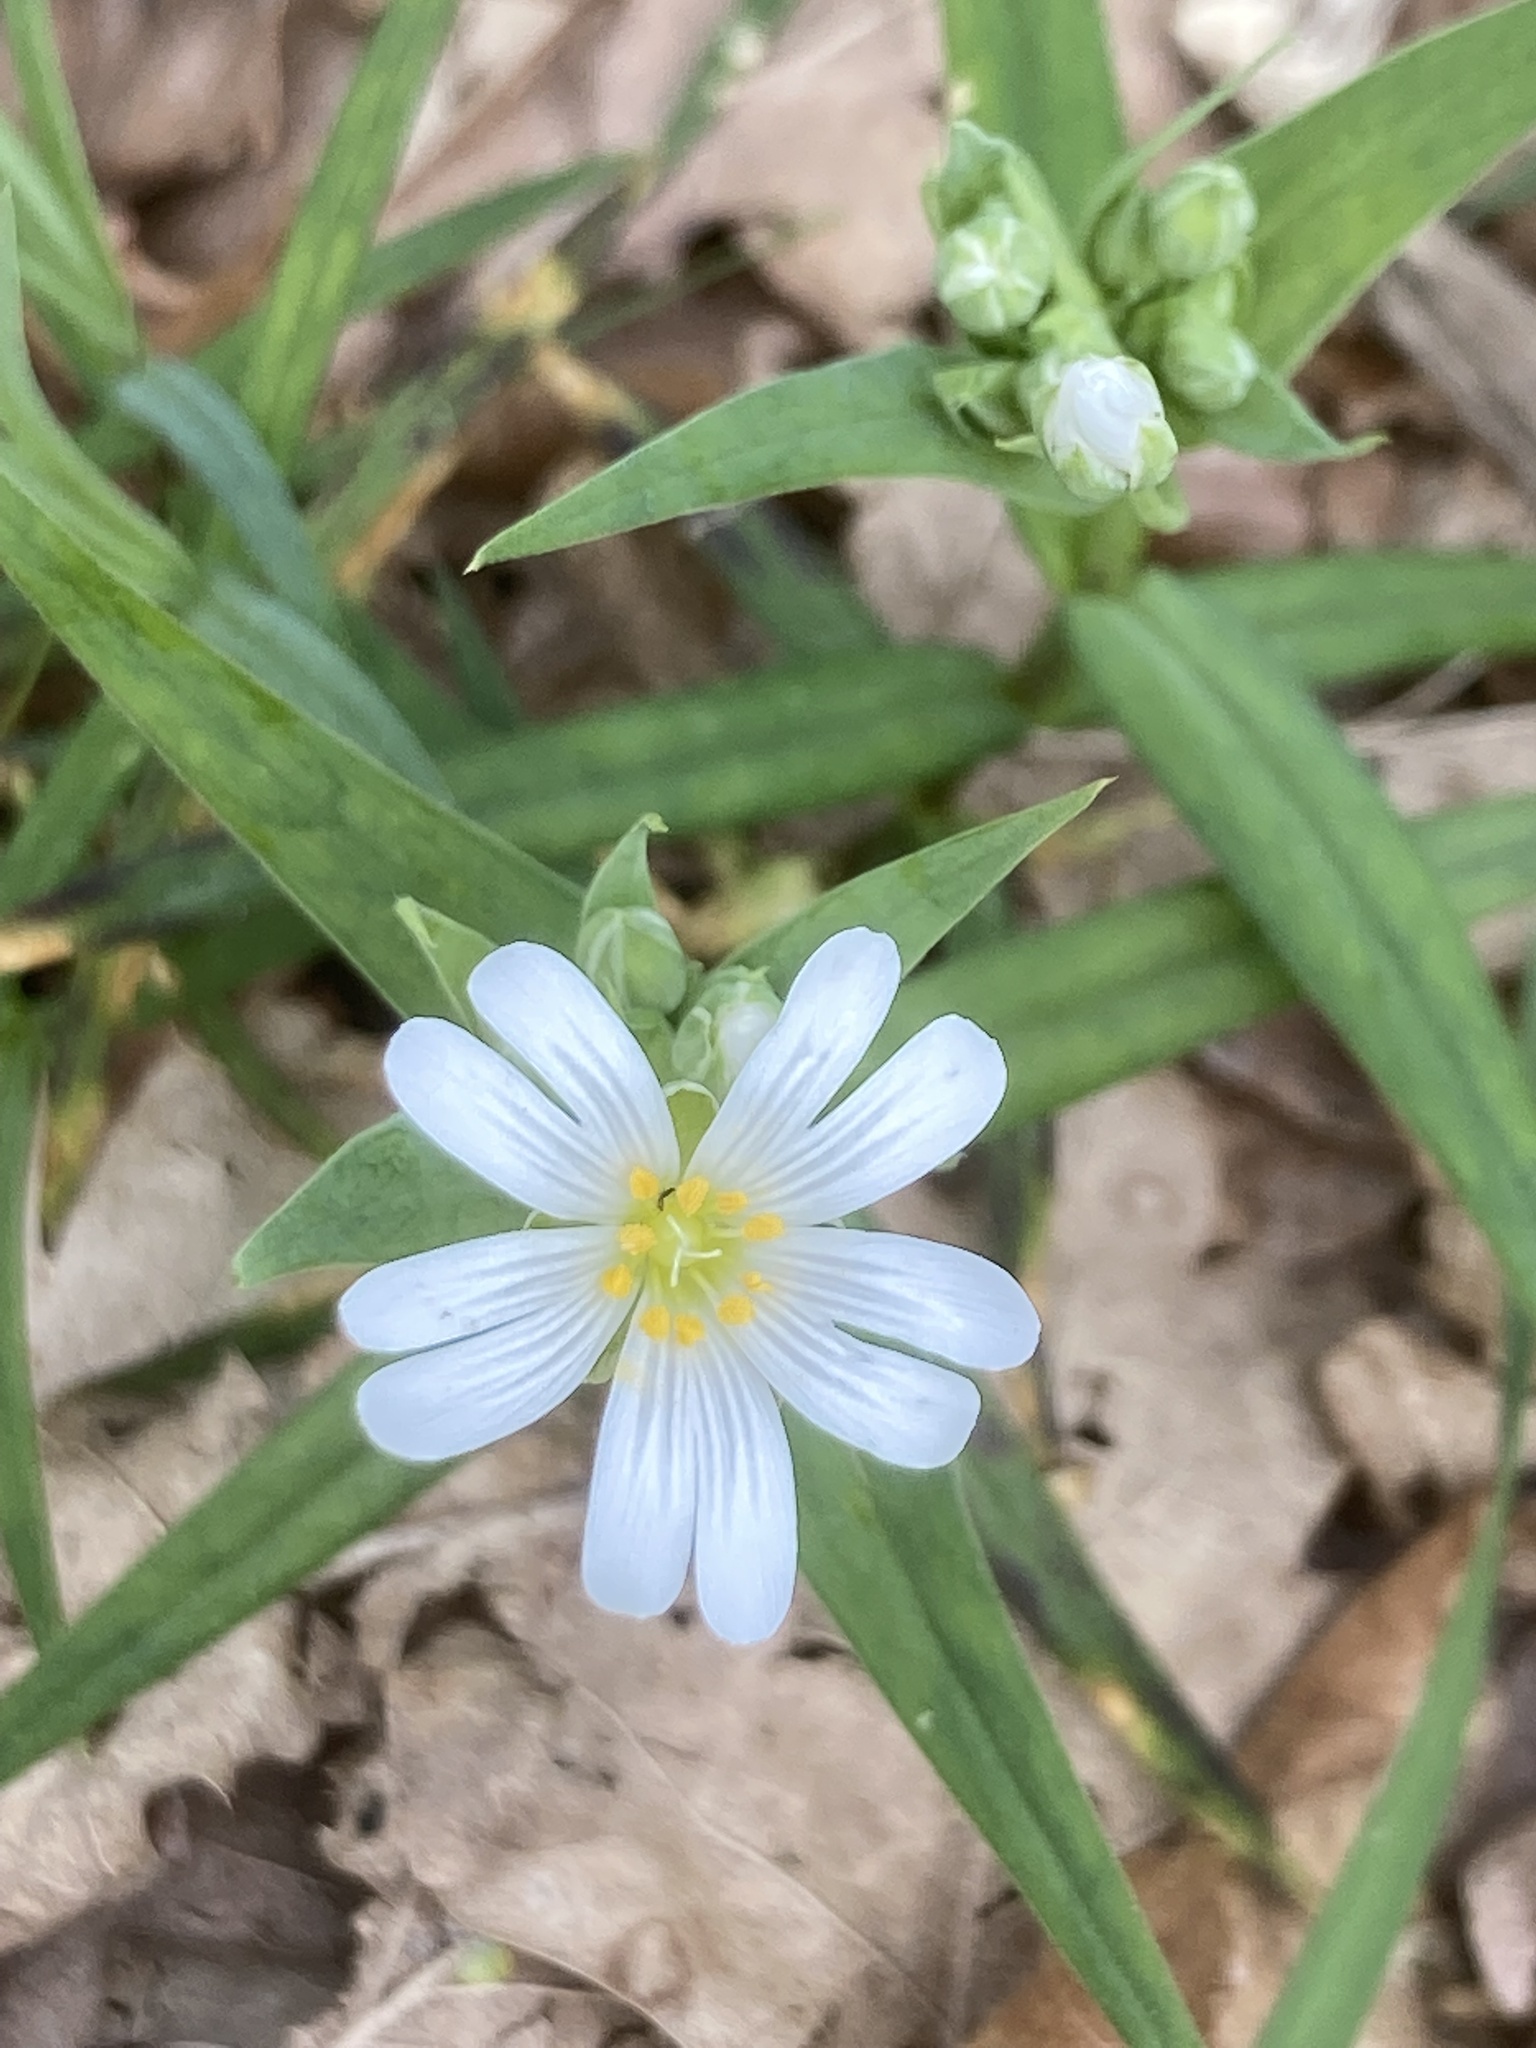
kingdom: Plantae
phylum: Tracheophyta
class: Magnoliopsida
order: Caryophyllales
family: Caryophyllaceae
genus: Rabelera
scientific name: Rabelera holostea
